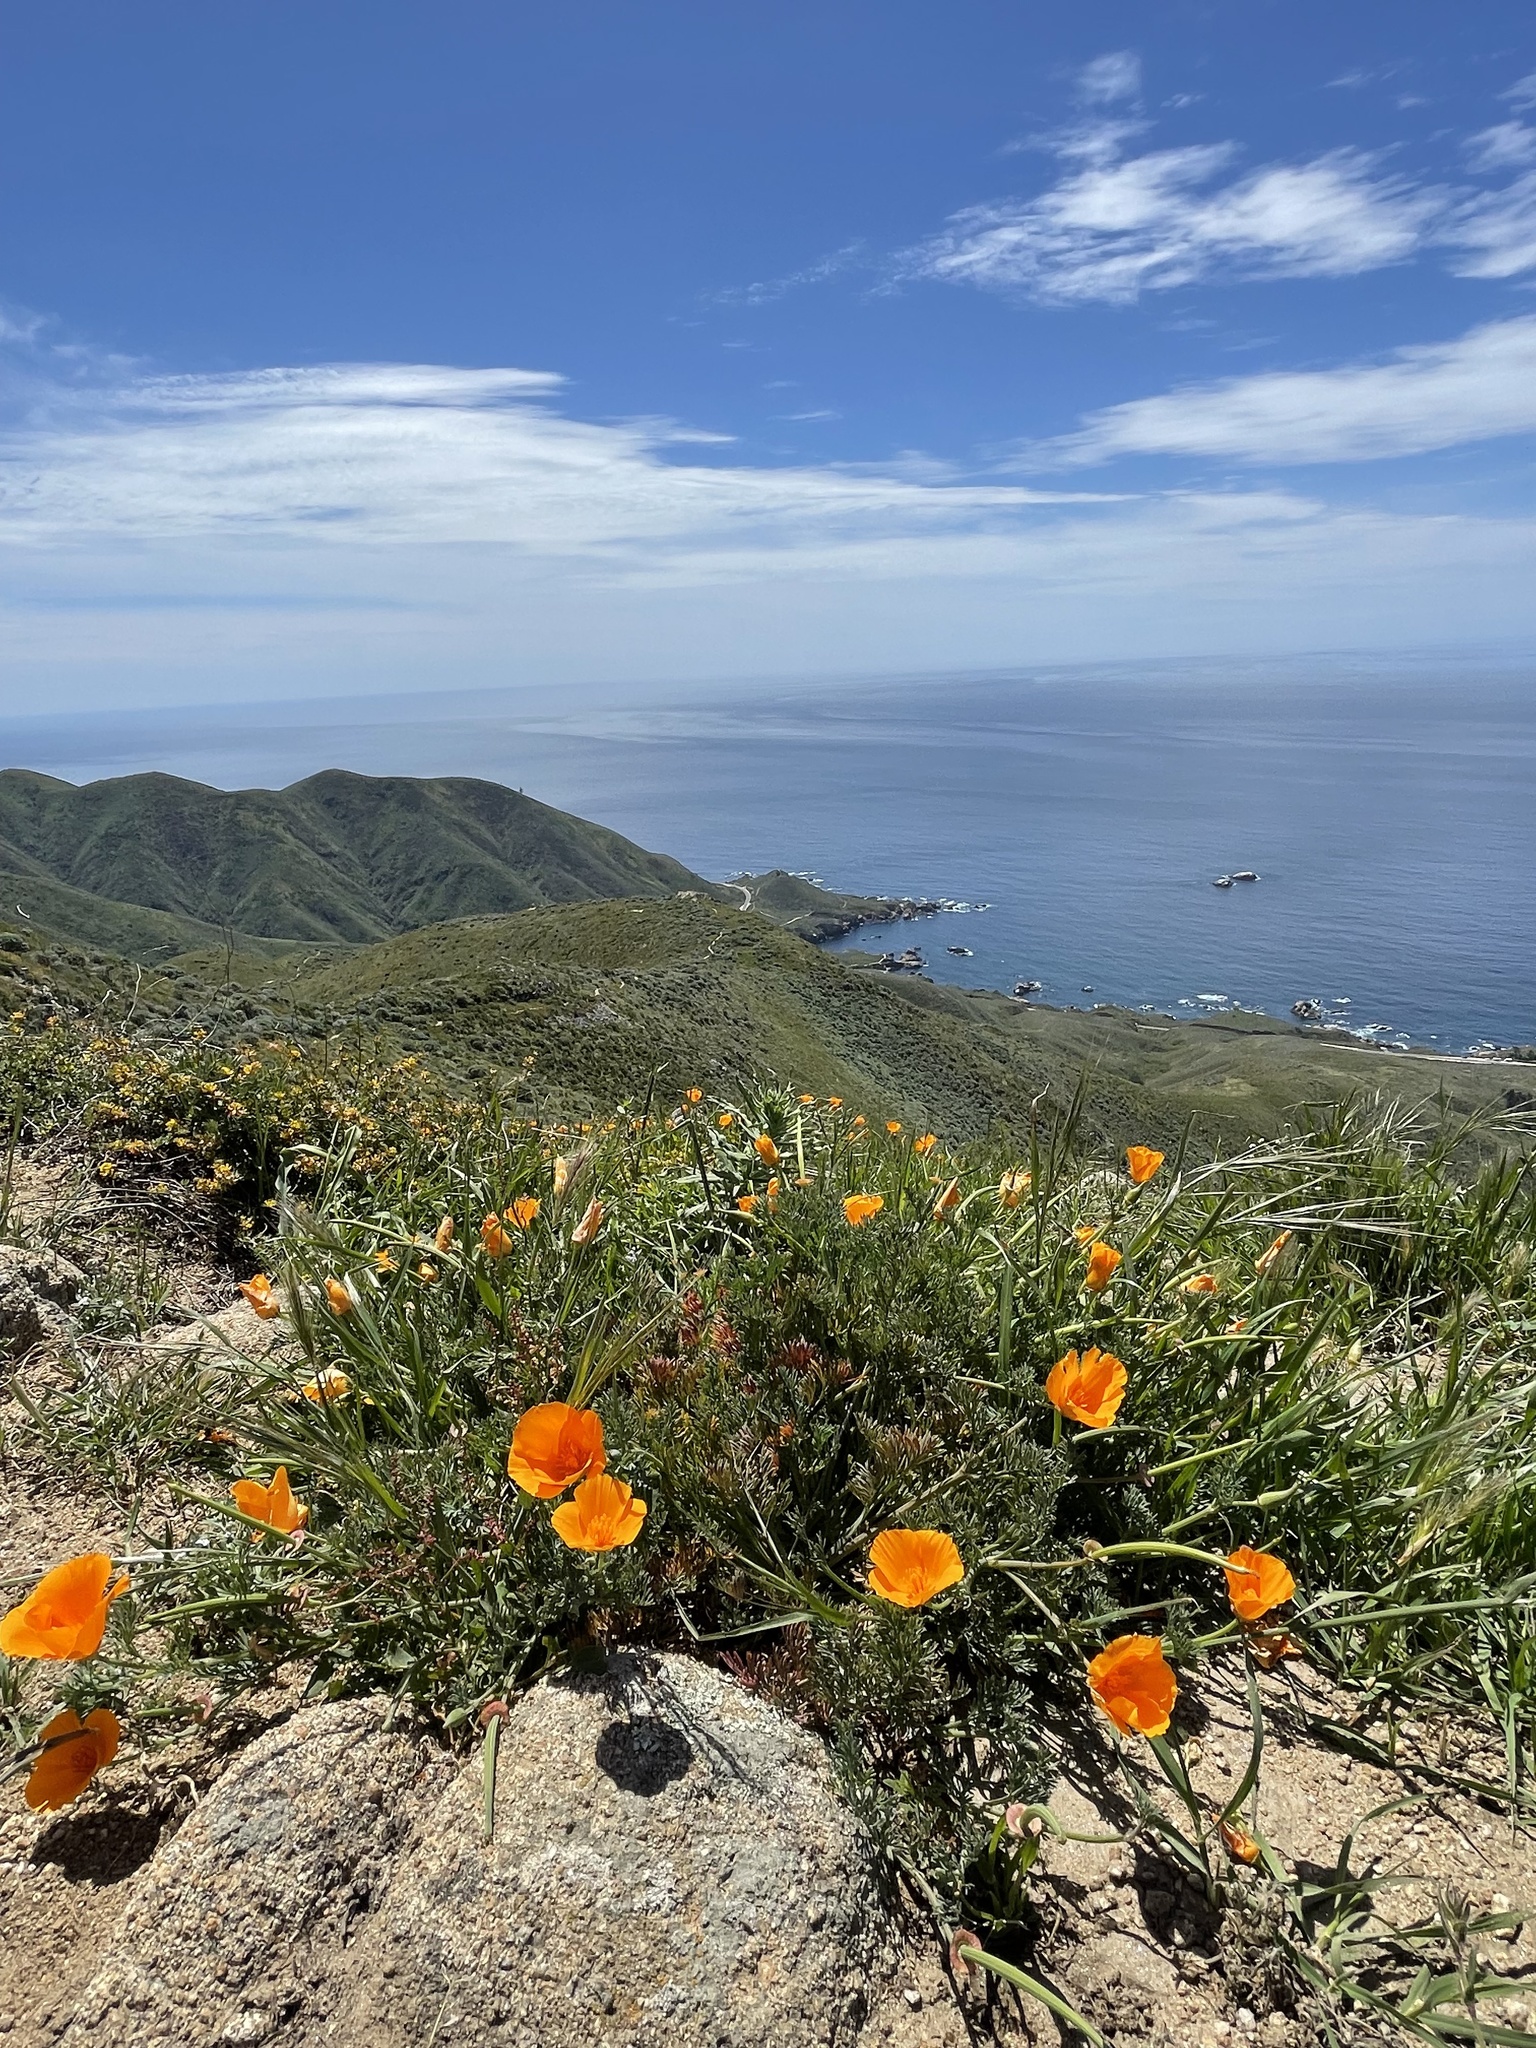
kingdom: Plantae
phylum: Tracheophyta
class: Magnoliopsida
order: Ranunculales
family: Papaveraceae
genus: Eschscholzia
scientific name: Eschscholzia californica
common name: California poppy
